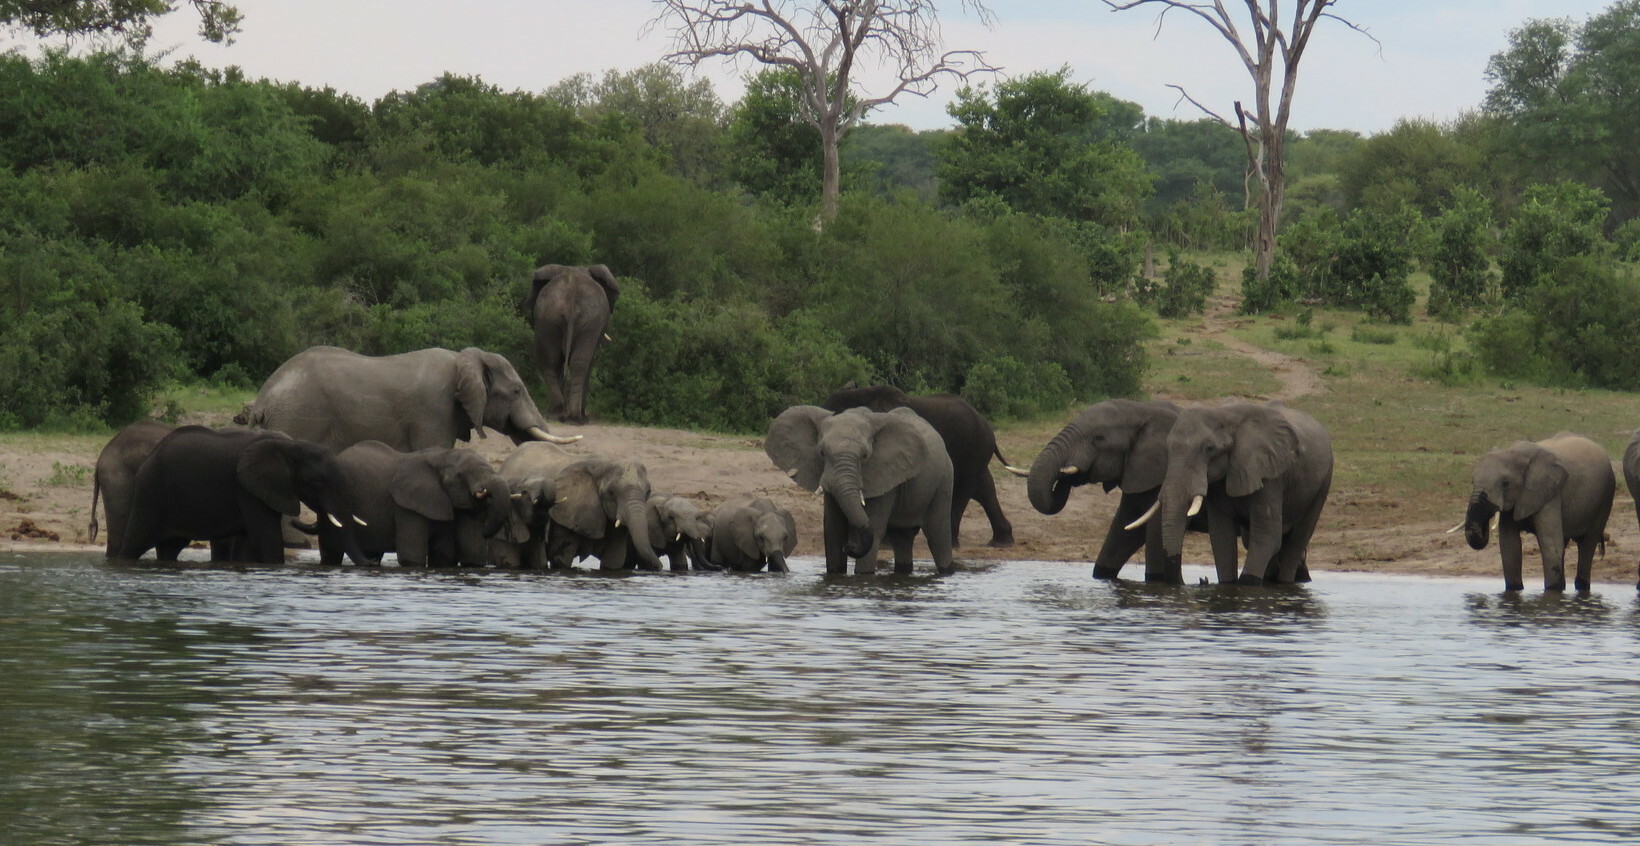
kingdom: Animalia
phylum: Chordata
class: Mammalia
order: Proboscidea
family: Elephantidae
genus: Loxodonta
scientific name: Loxodonta africana
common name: African elephant
